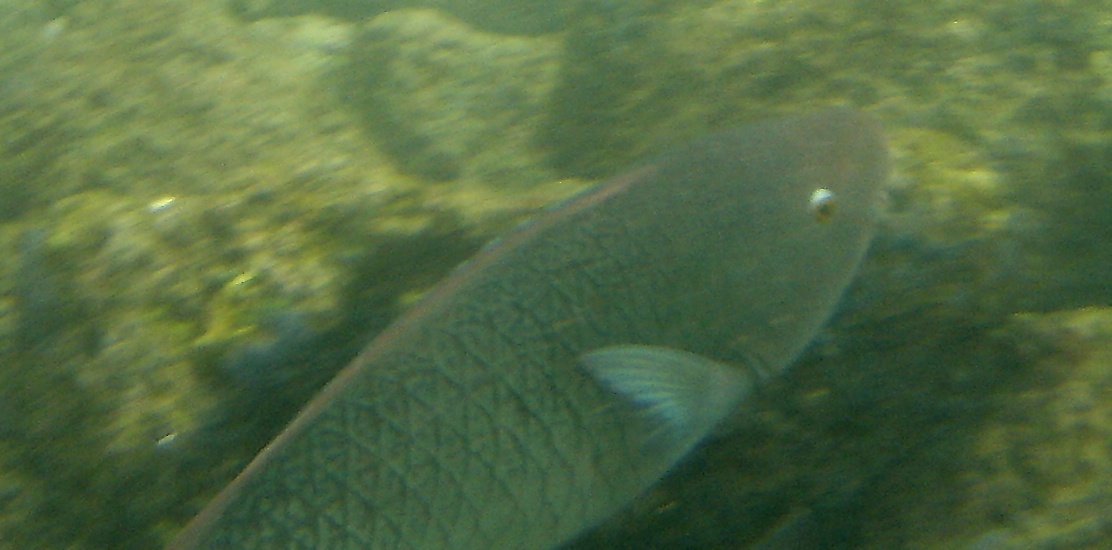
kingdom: Animalia
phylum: Chordata
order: Perciformes
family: Scaridae
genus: Scarus
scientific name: Scarus rubroviolaceus
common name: Ember parrotfish
